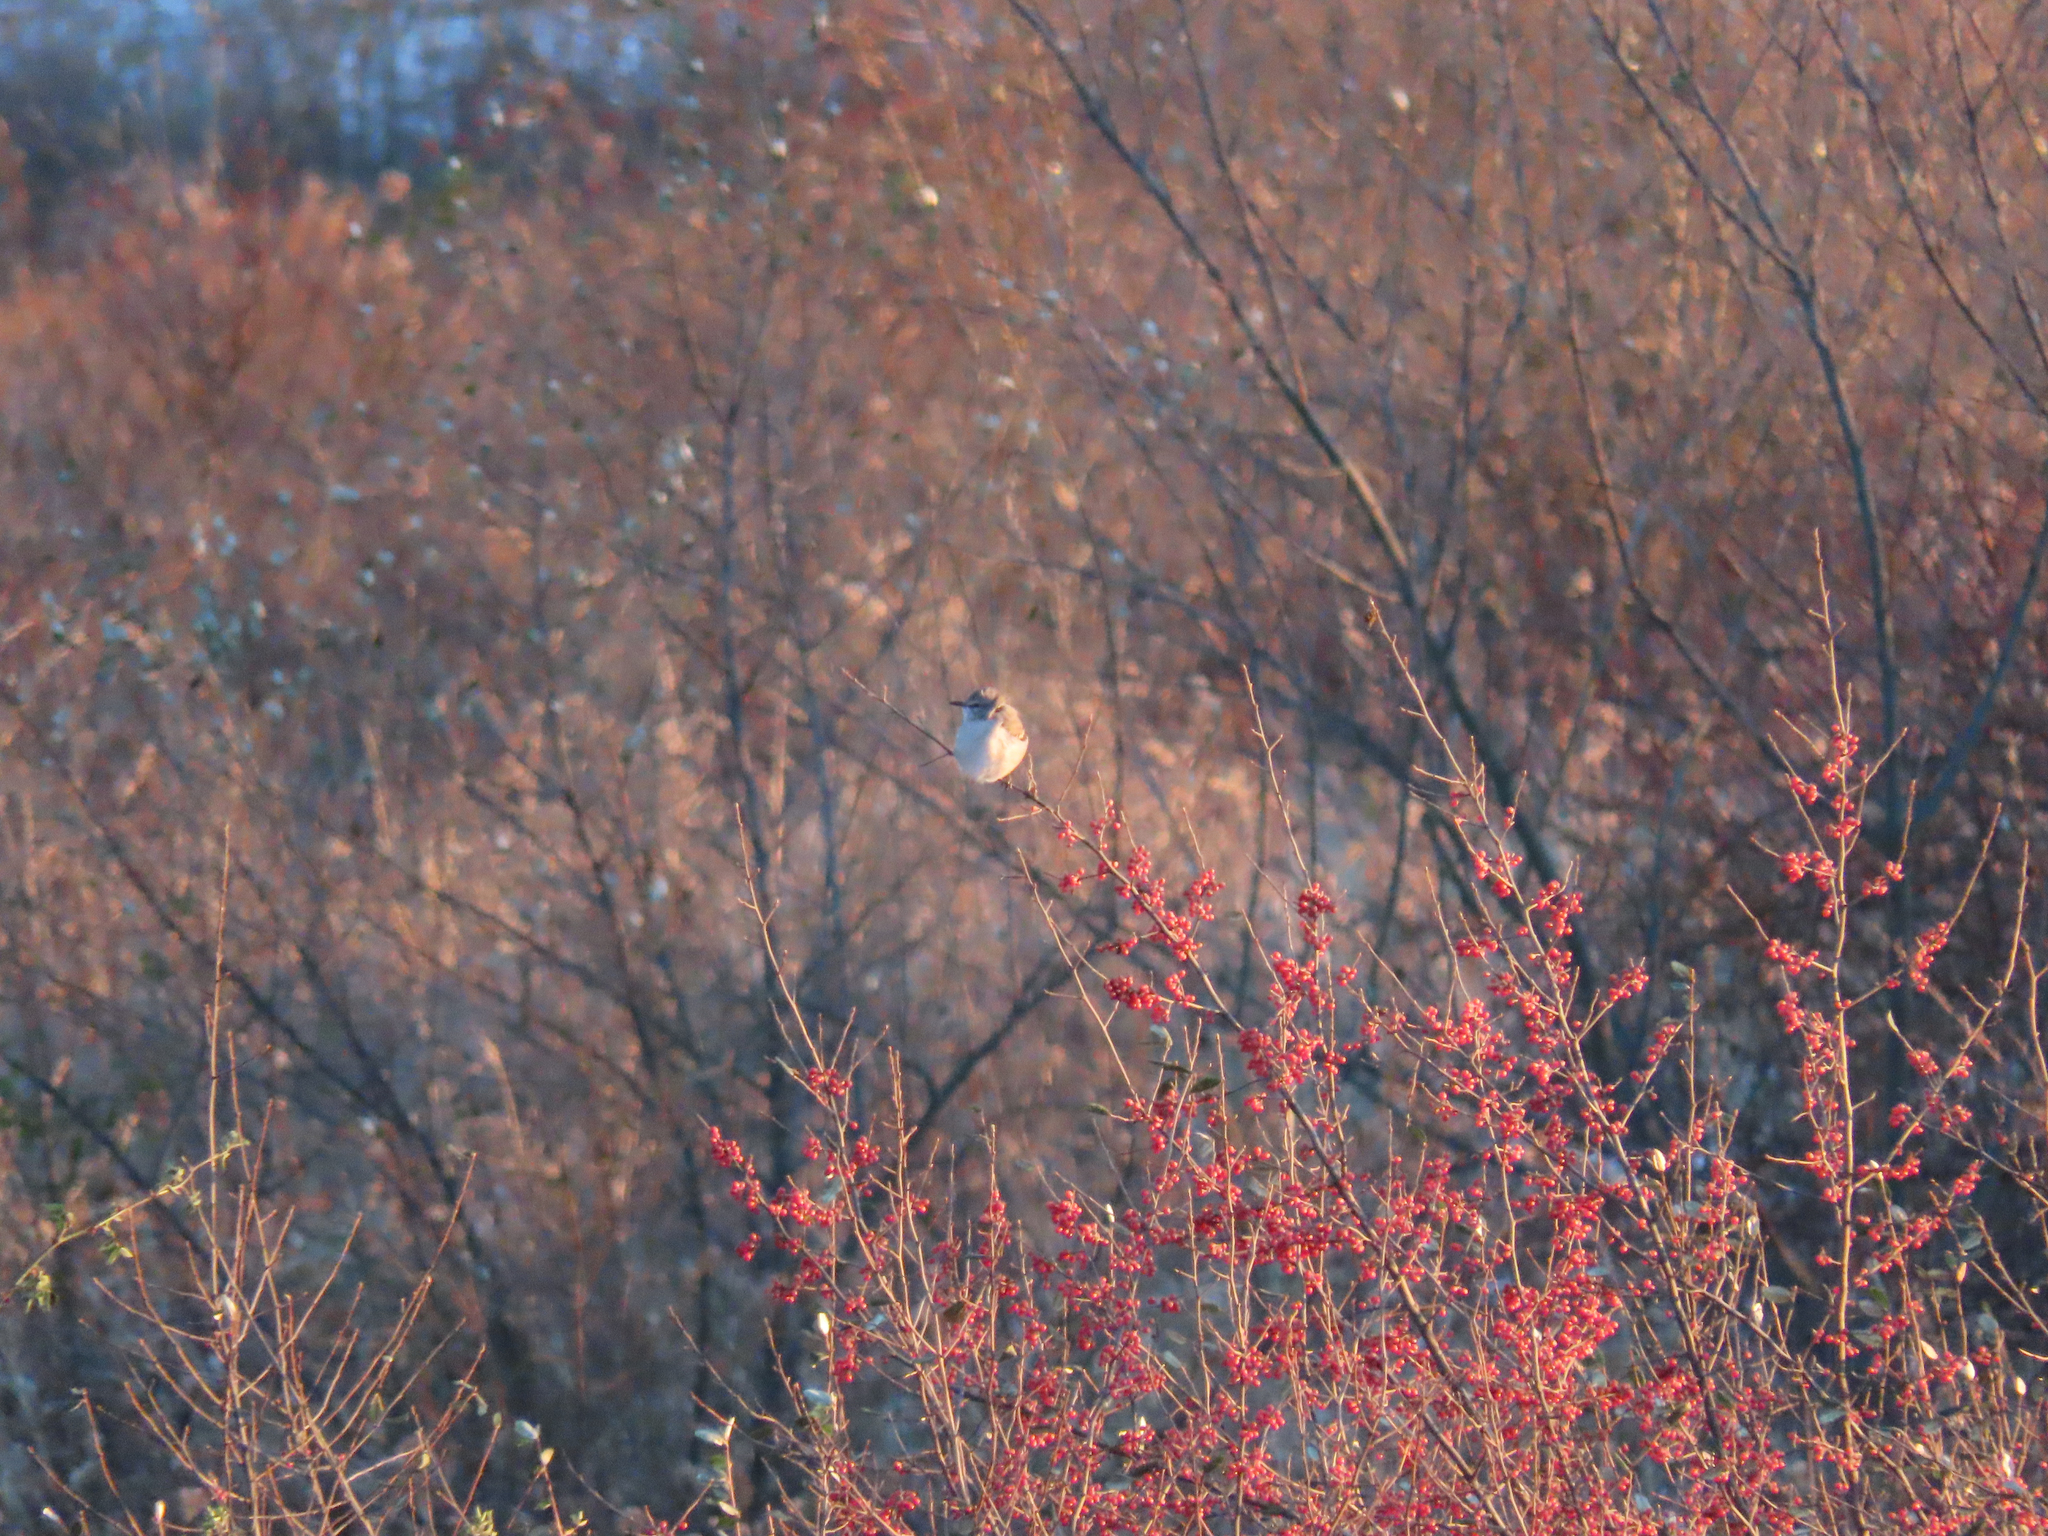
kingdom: Animalia
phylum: Chordata
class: Aves
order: Passeriformes
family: Mimidae
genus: Mimus
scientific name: Mimus polyglottos
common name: Northern mockingbird
